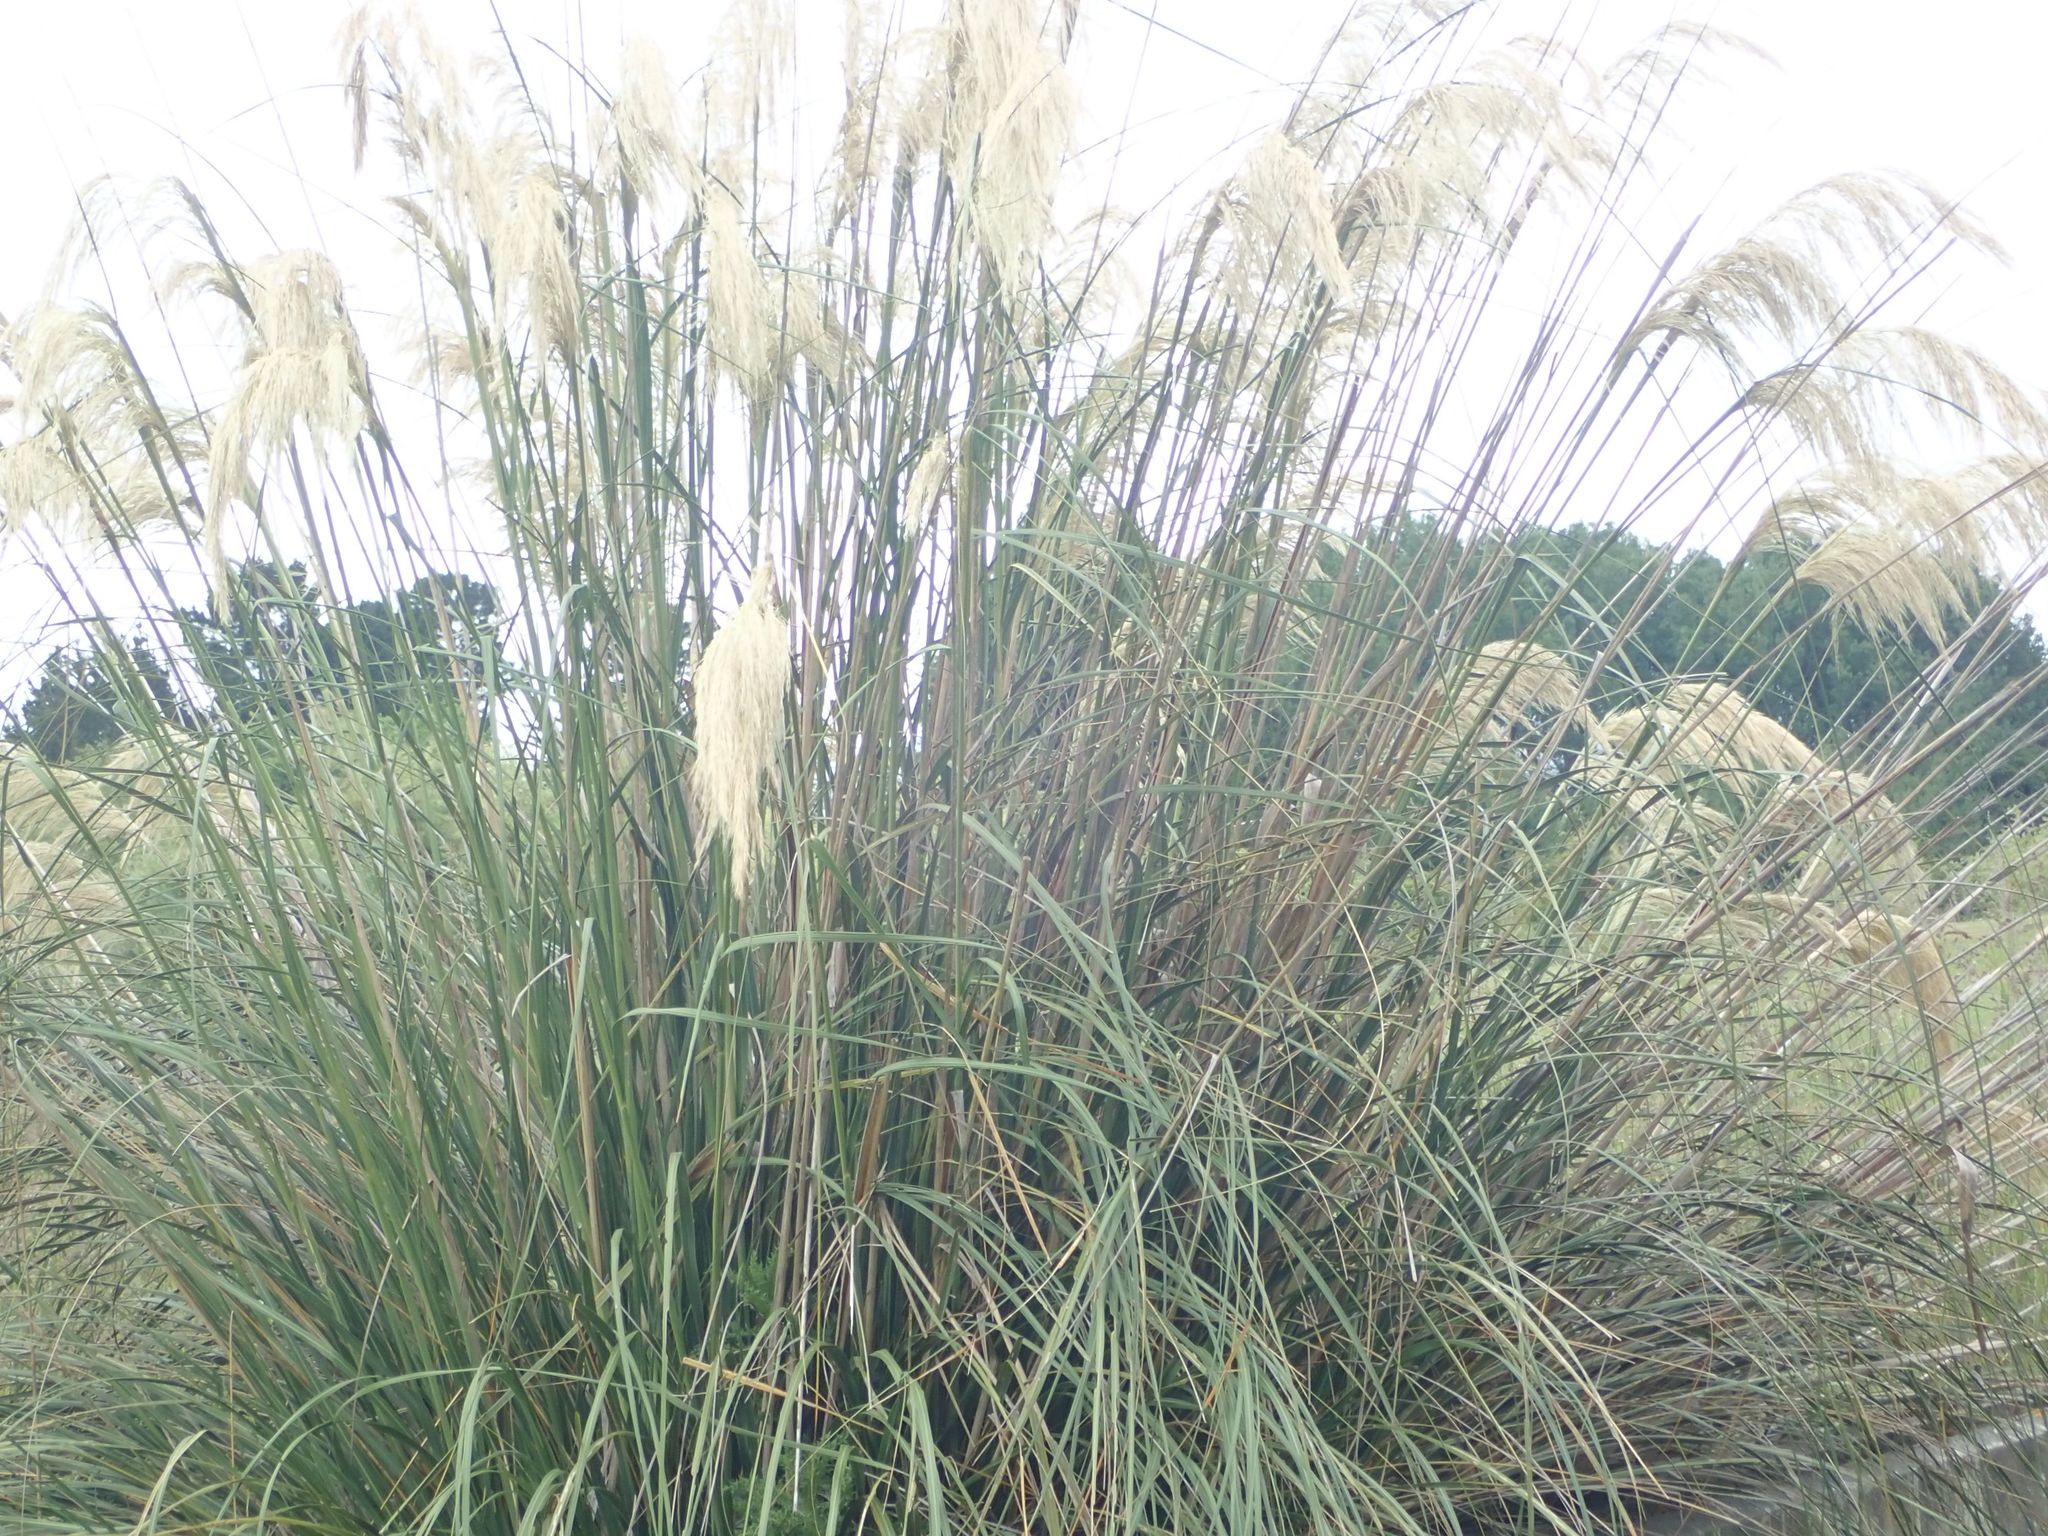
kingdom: Plantae
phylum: Tracheophyta
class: Liliopsida
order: Poales
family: Poaceae
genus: Austroderia
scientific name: Austroderia richardii
